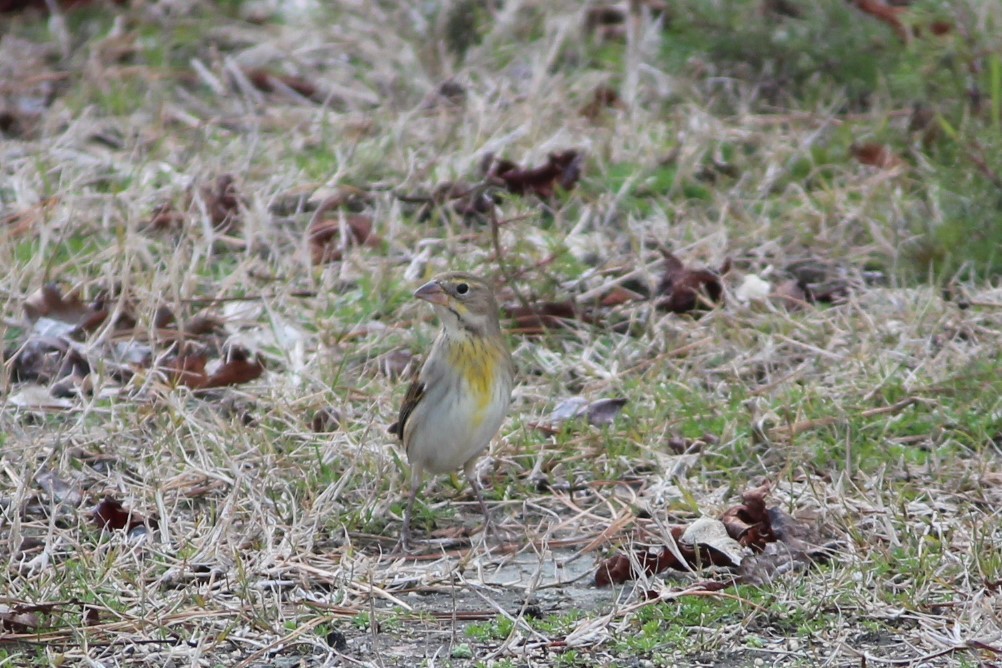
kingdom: Animalia
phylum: Chordata
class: Aves
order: Passeriformes
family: Cardinalidae
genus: Spiza
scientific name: Spiza americana
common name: Dickcissel
